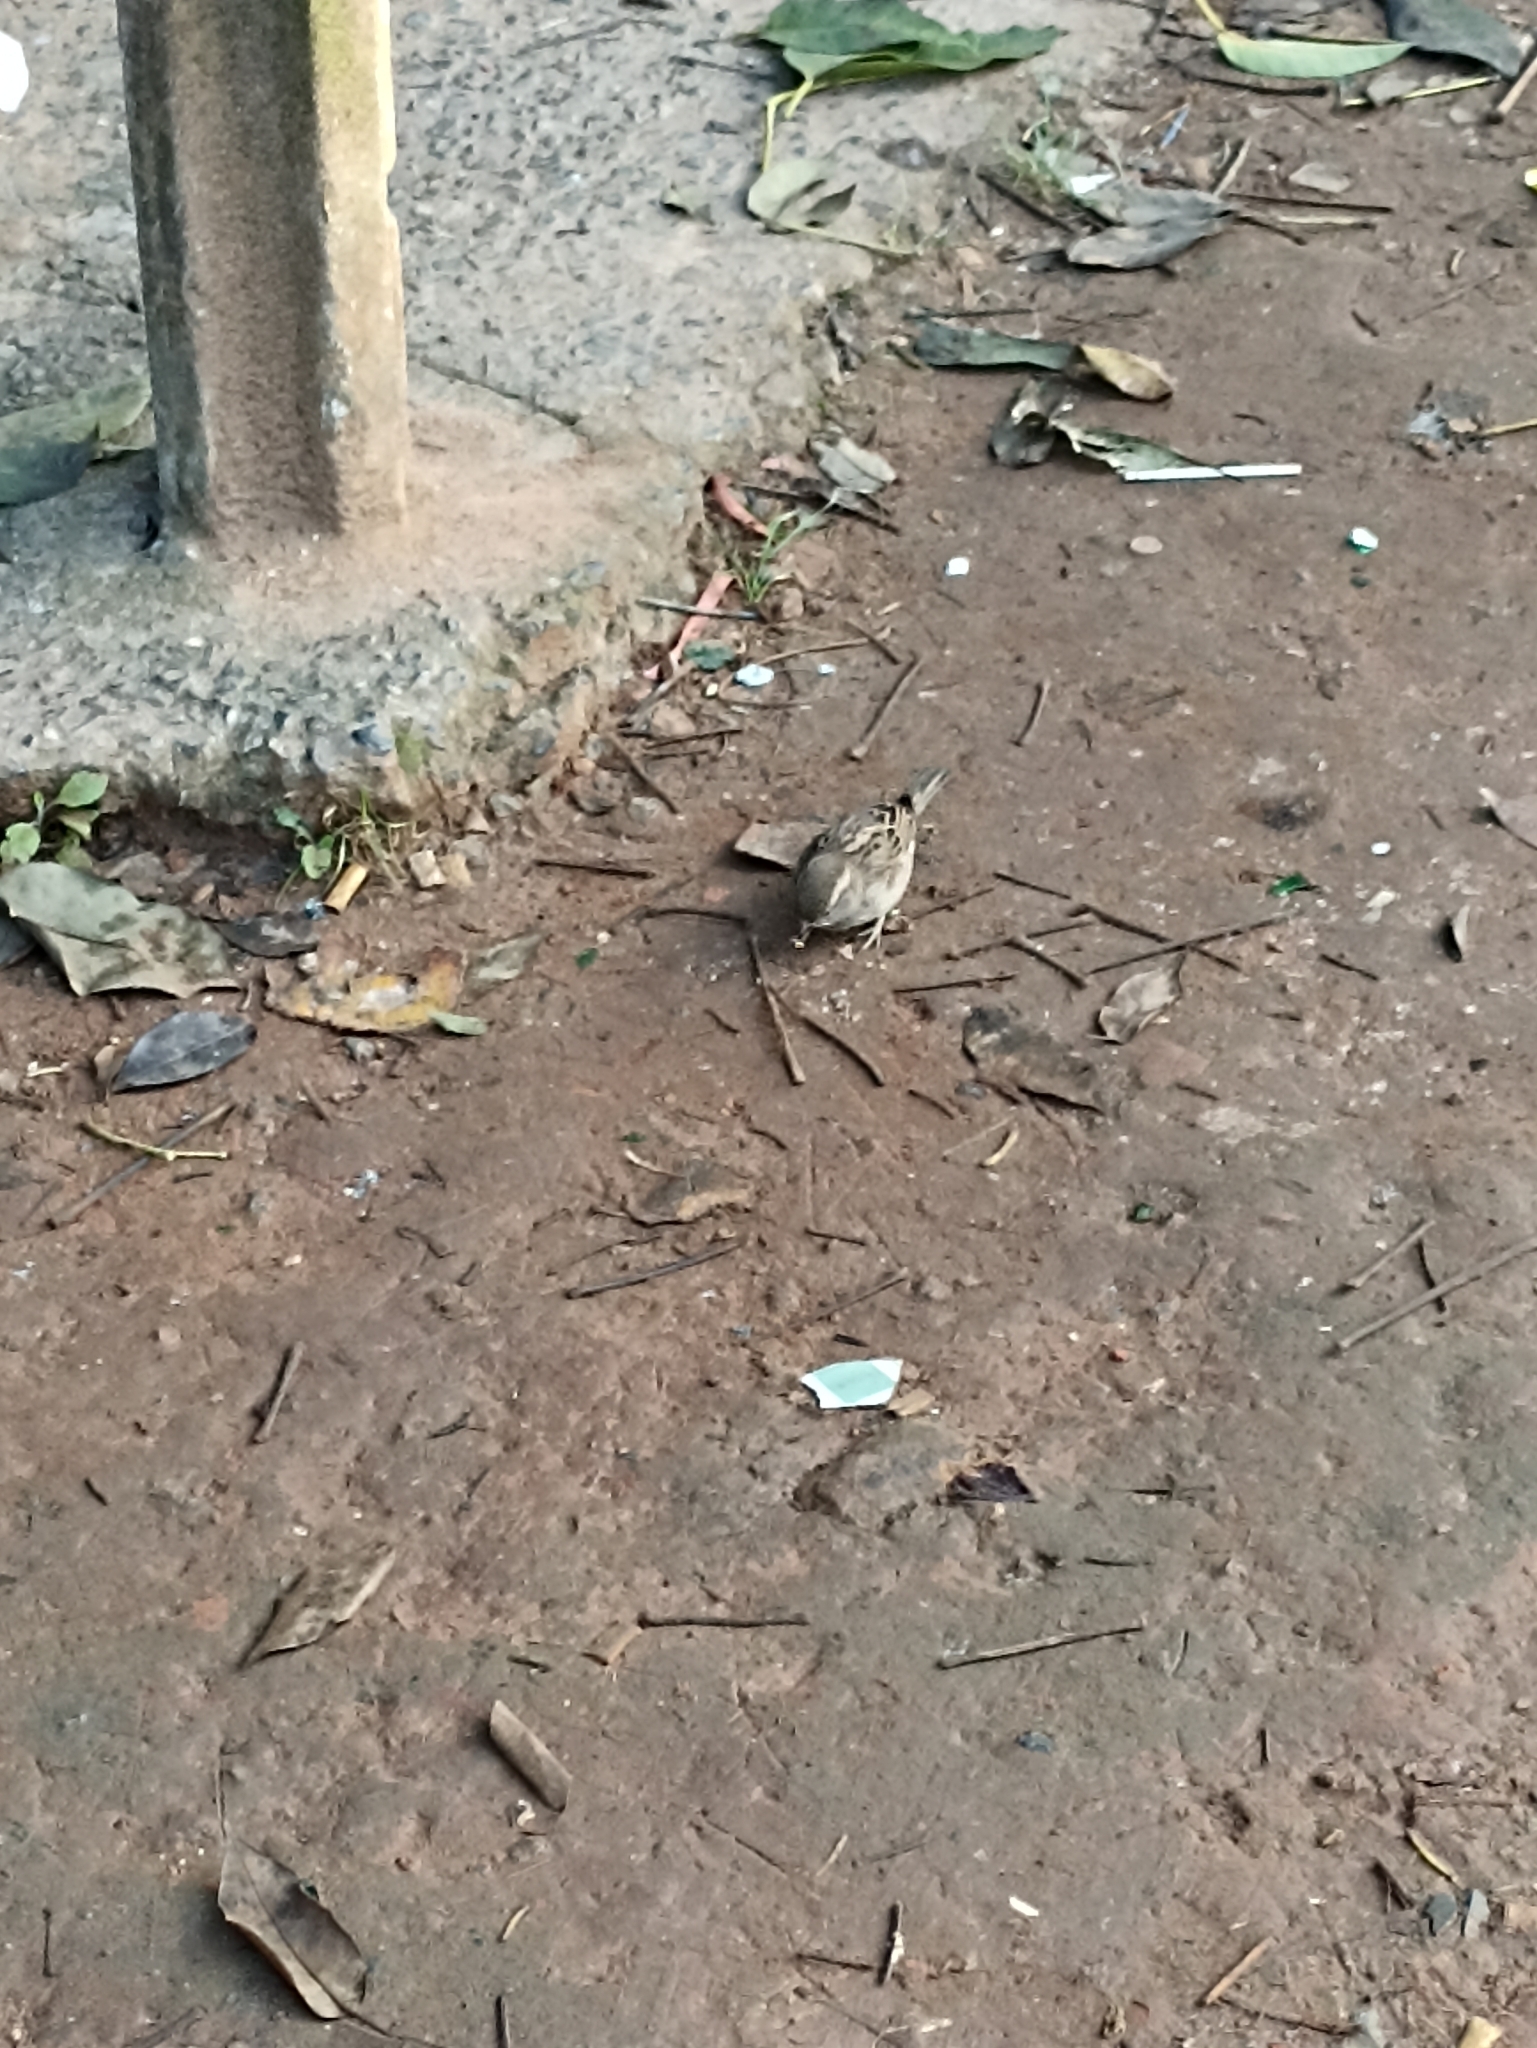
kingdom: Animalia
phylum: Chordata
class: Aves
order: Passeriformes
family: Passeridae
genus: Passer
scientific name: Passer domesticus
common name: House sparrow
